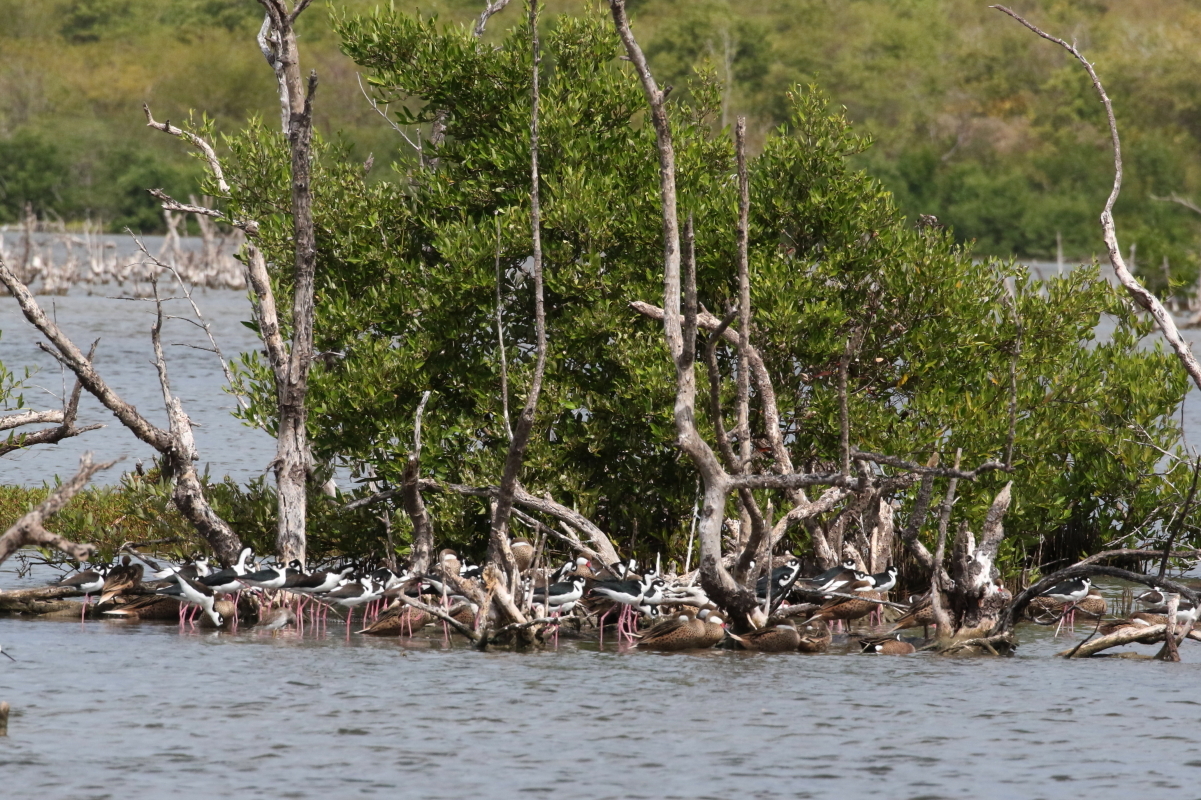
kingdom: Animalia
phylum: Chordata
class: Aves
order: Charadriiformes
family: Recurvirostridae
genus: Himantopus
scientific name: Himantopus mexicanus
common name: Black-necked stilt
